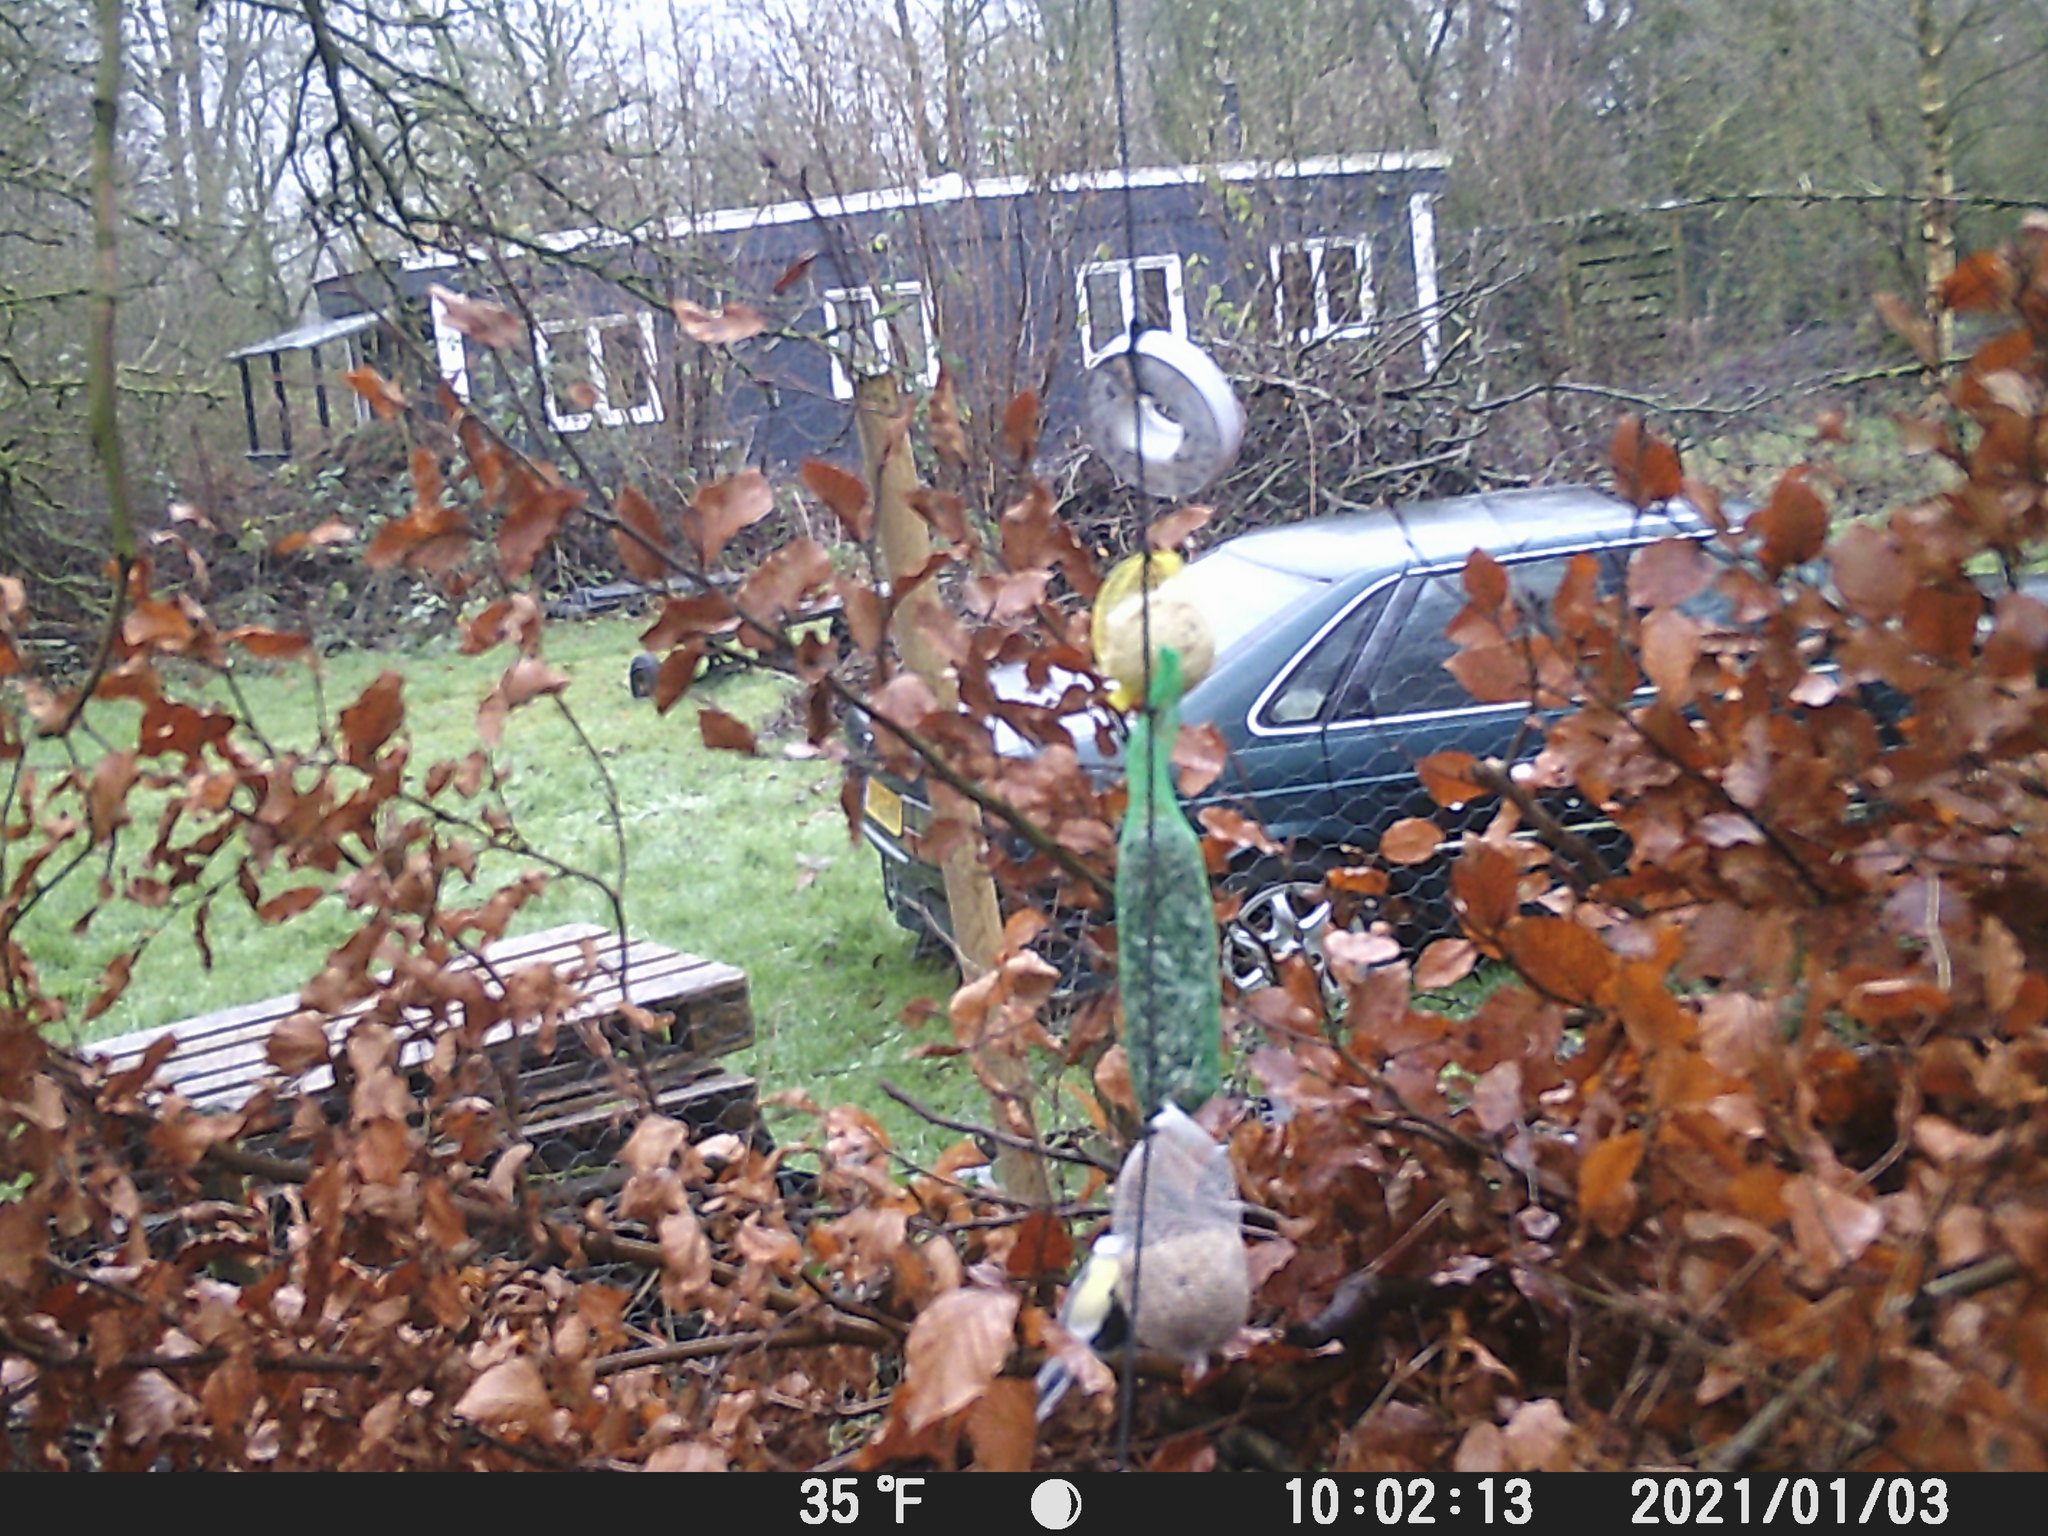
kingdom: Animalia
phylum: Chordata
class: Aves
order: Passeriformes
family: Paridae
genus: Parus
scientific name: Parus major
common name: Great tit
